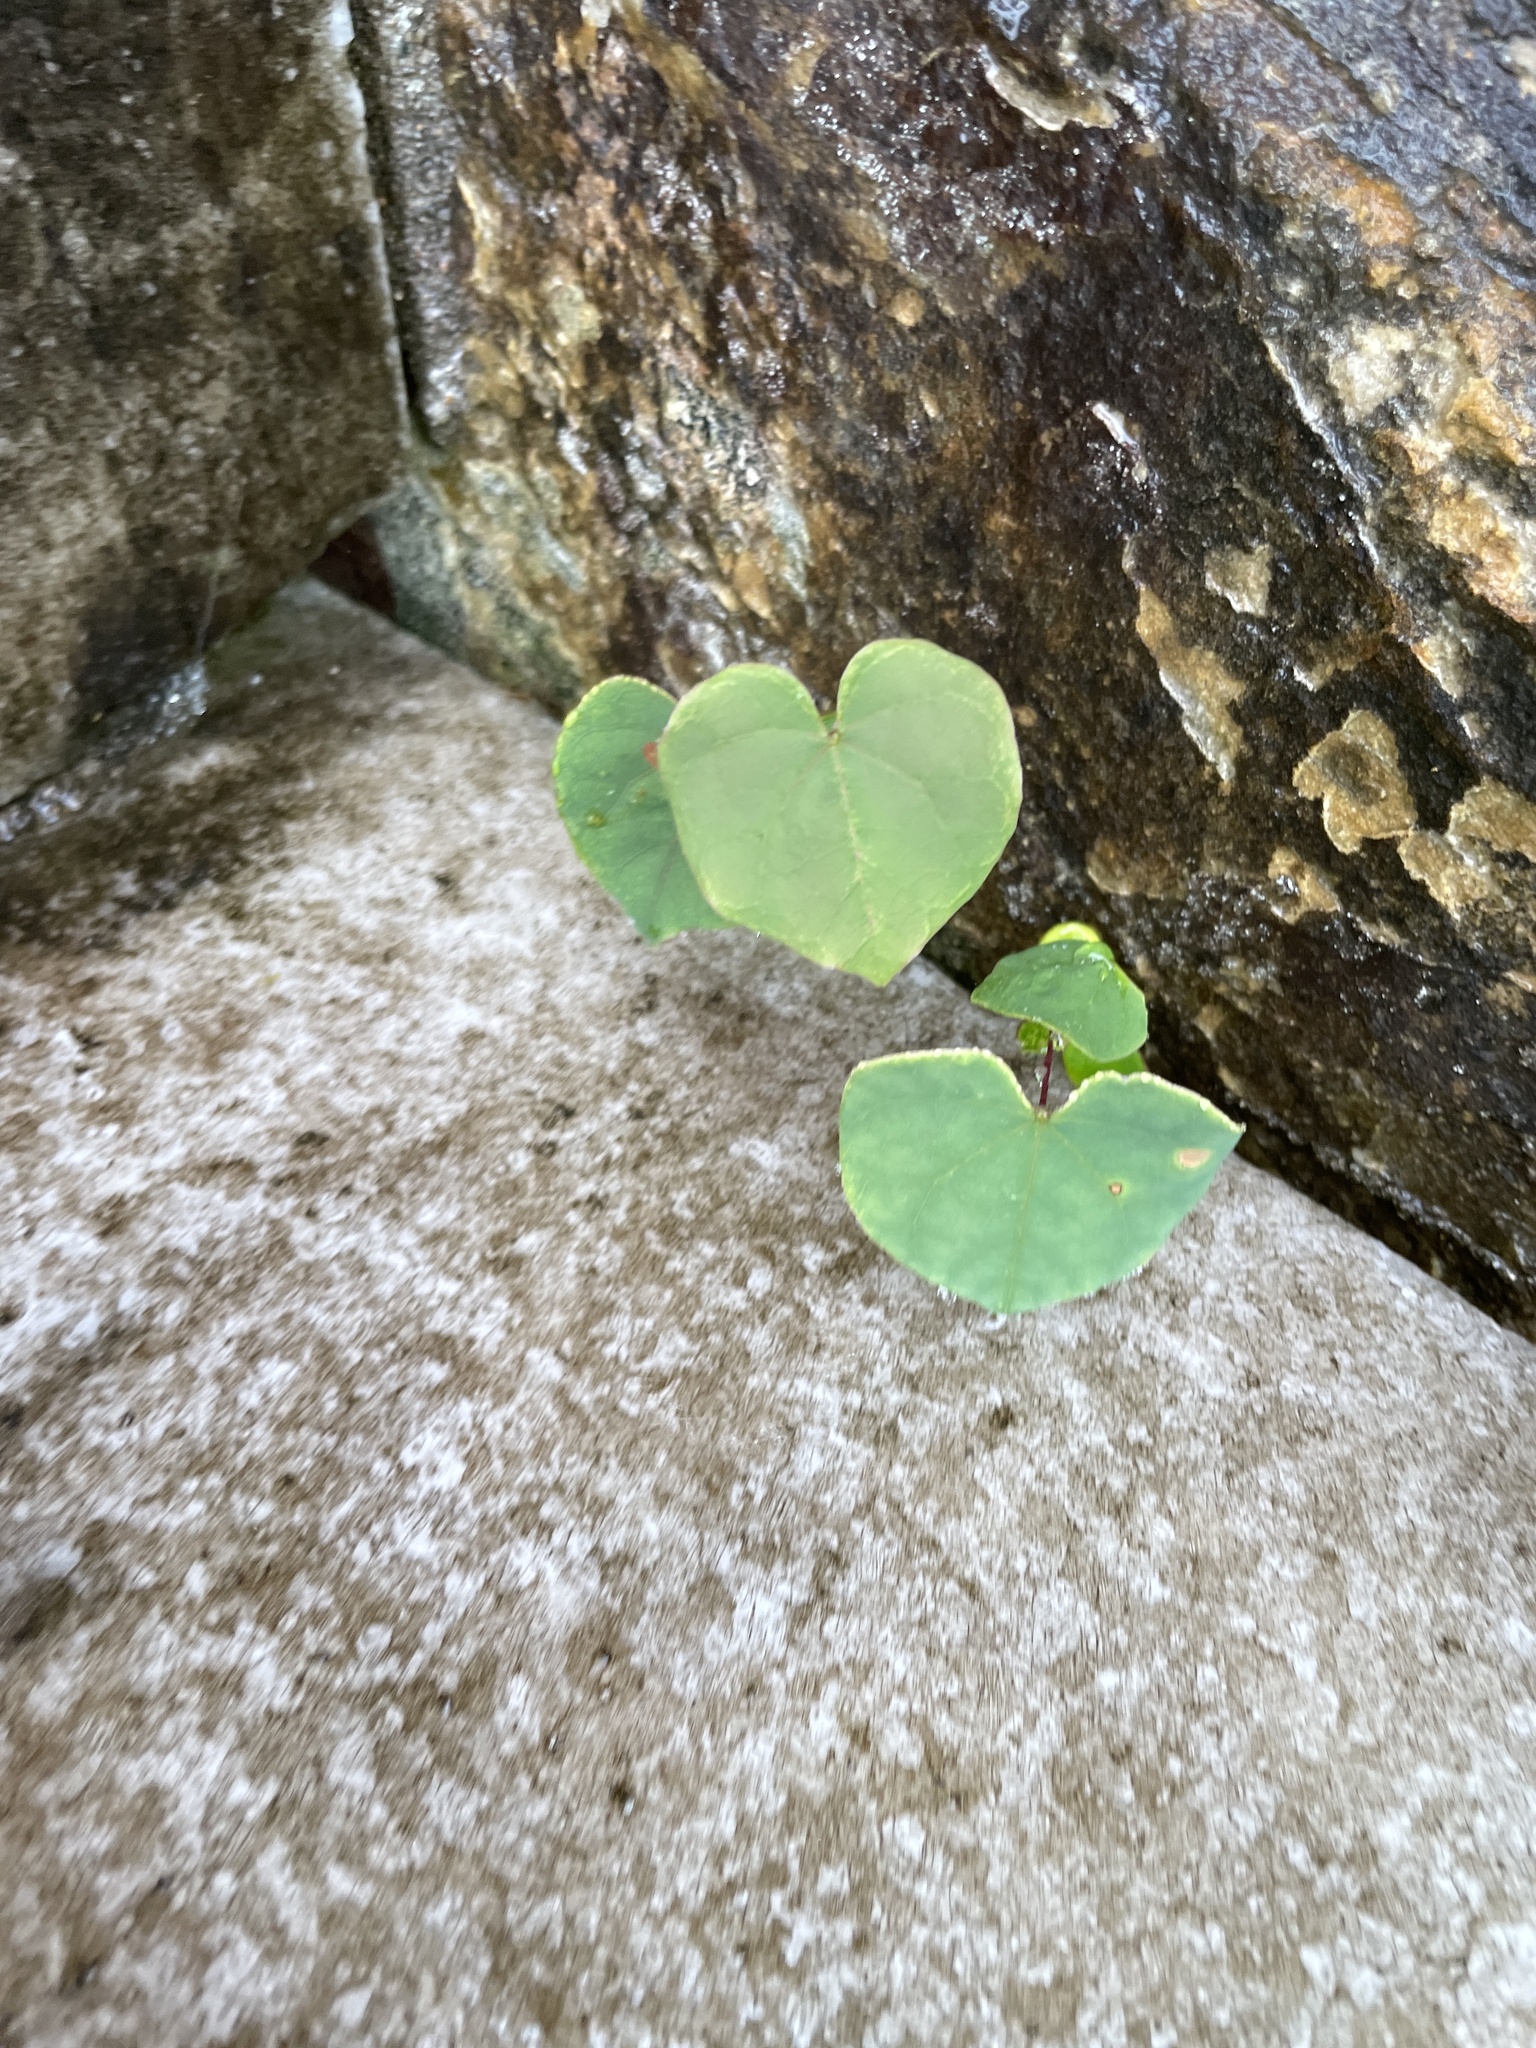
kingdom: Plantae
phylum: Tracheophyta
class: Magnoliopsida
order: Fabales
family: Fabaceae
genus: Cercis
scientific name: Cercis canadensis
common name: Eastern redbud
